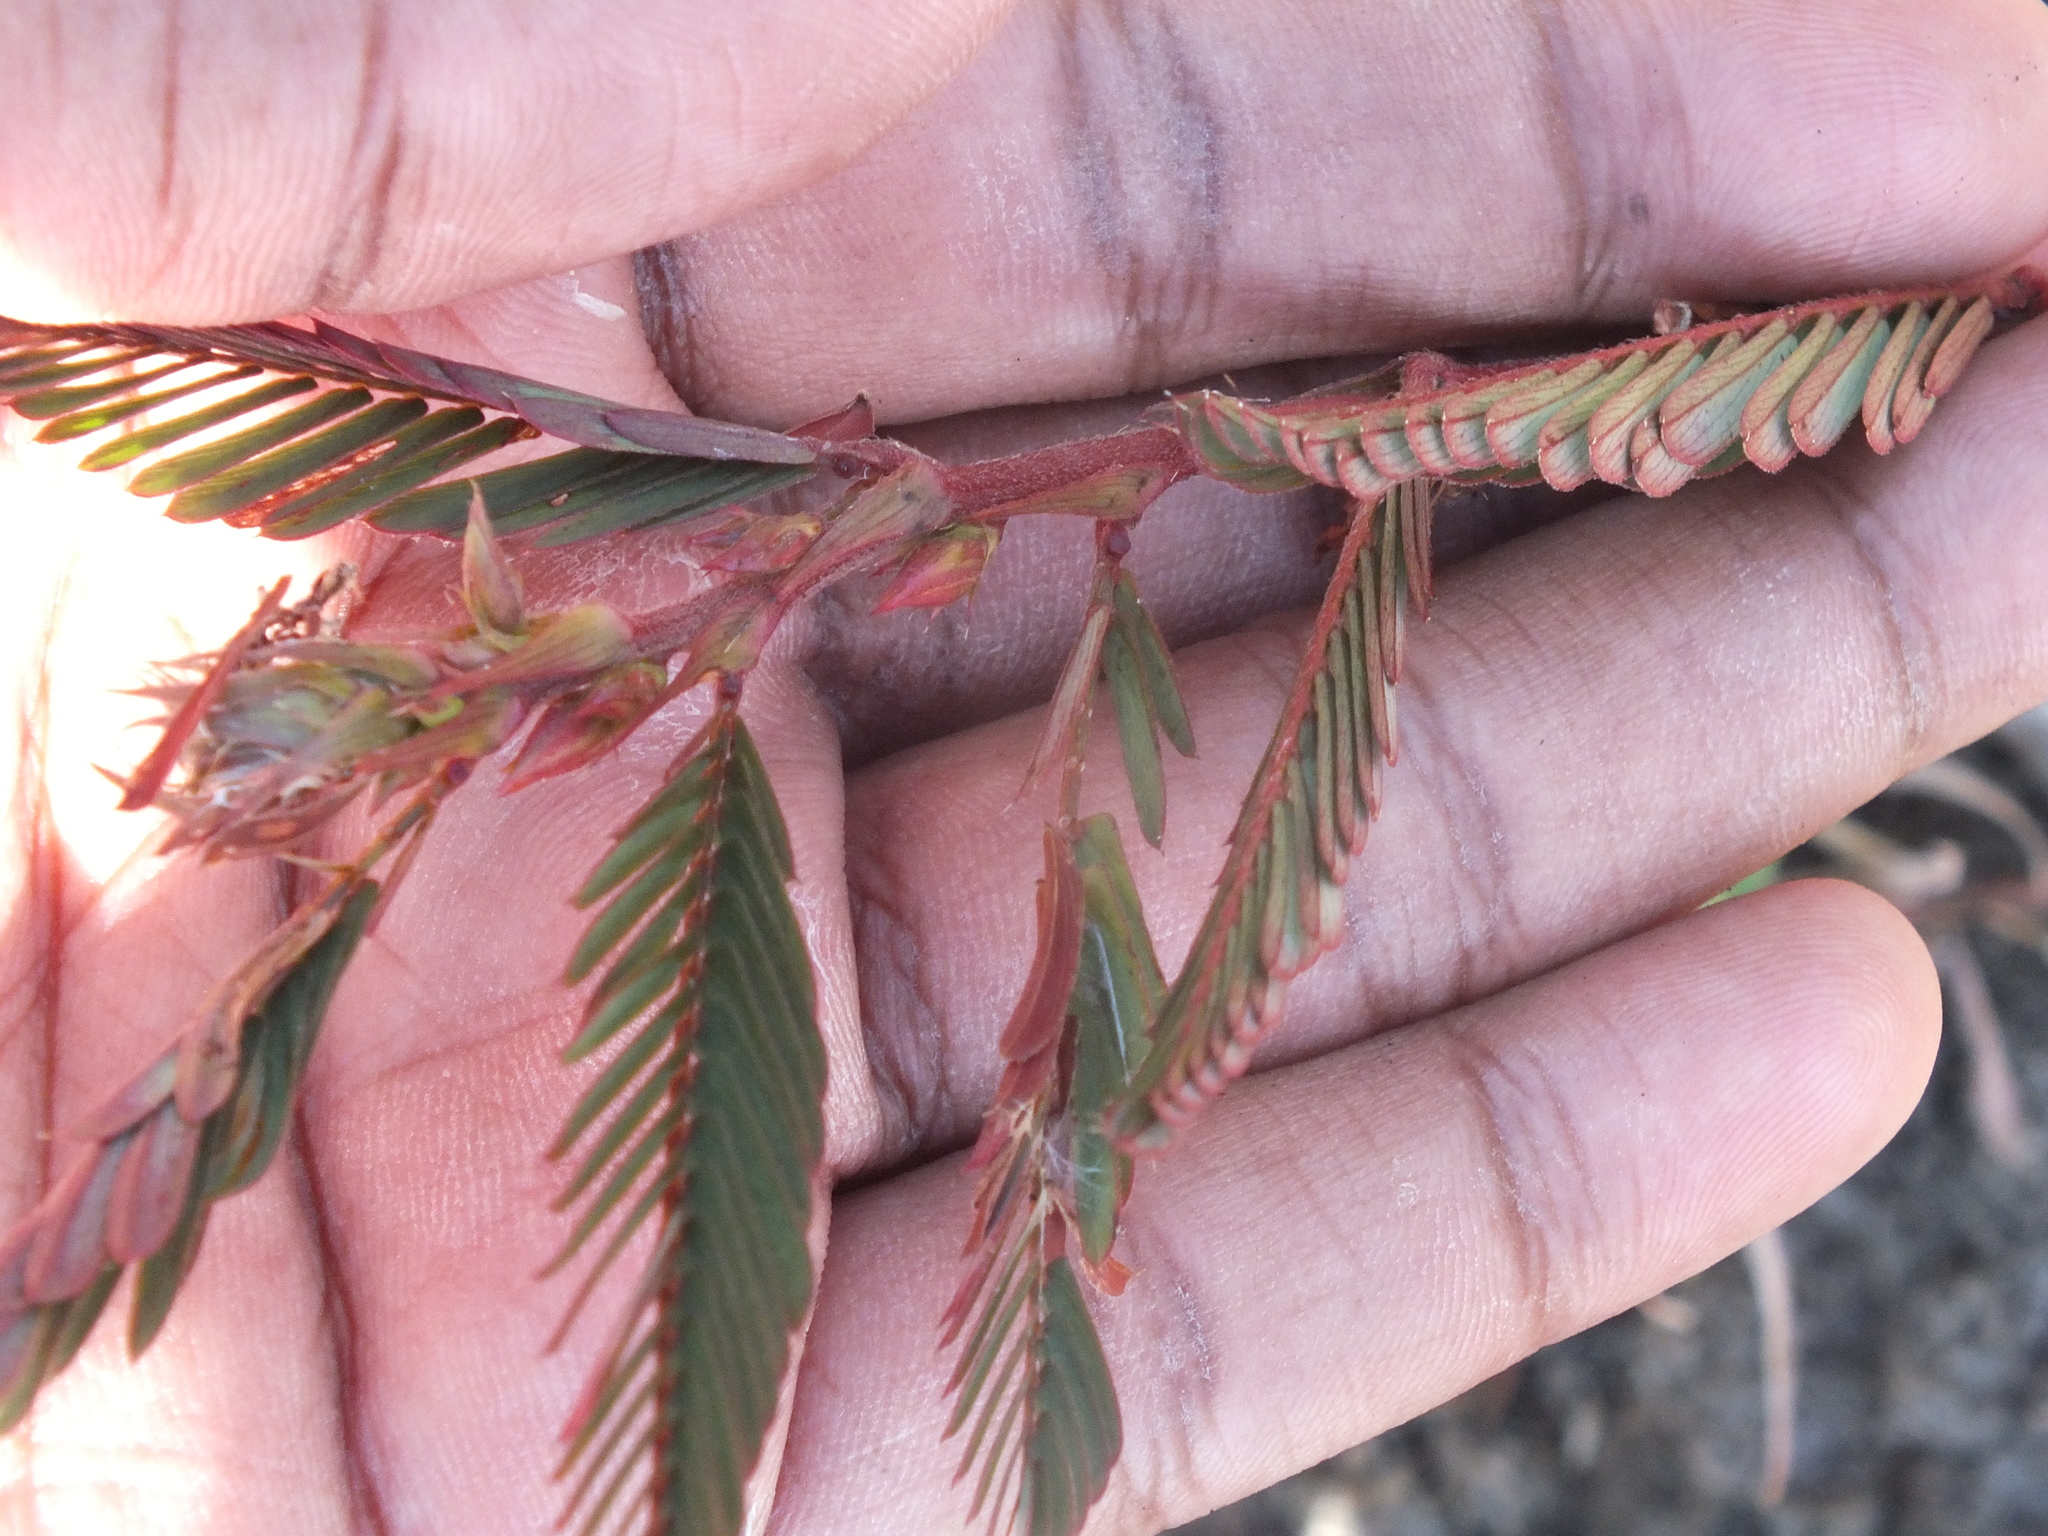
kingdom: Plantae
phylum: Tracheophyta
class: Magnoliopsida
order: Fabales
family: Fabaceae
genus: Chamaecrista
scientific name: Chamaecrista nictitans
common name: Sensitive cassia
